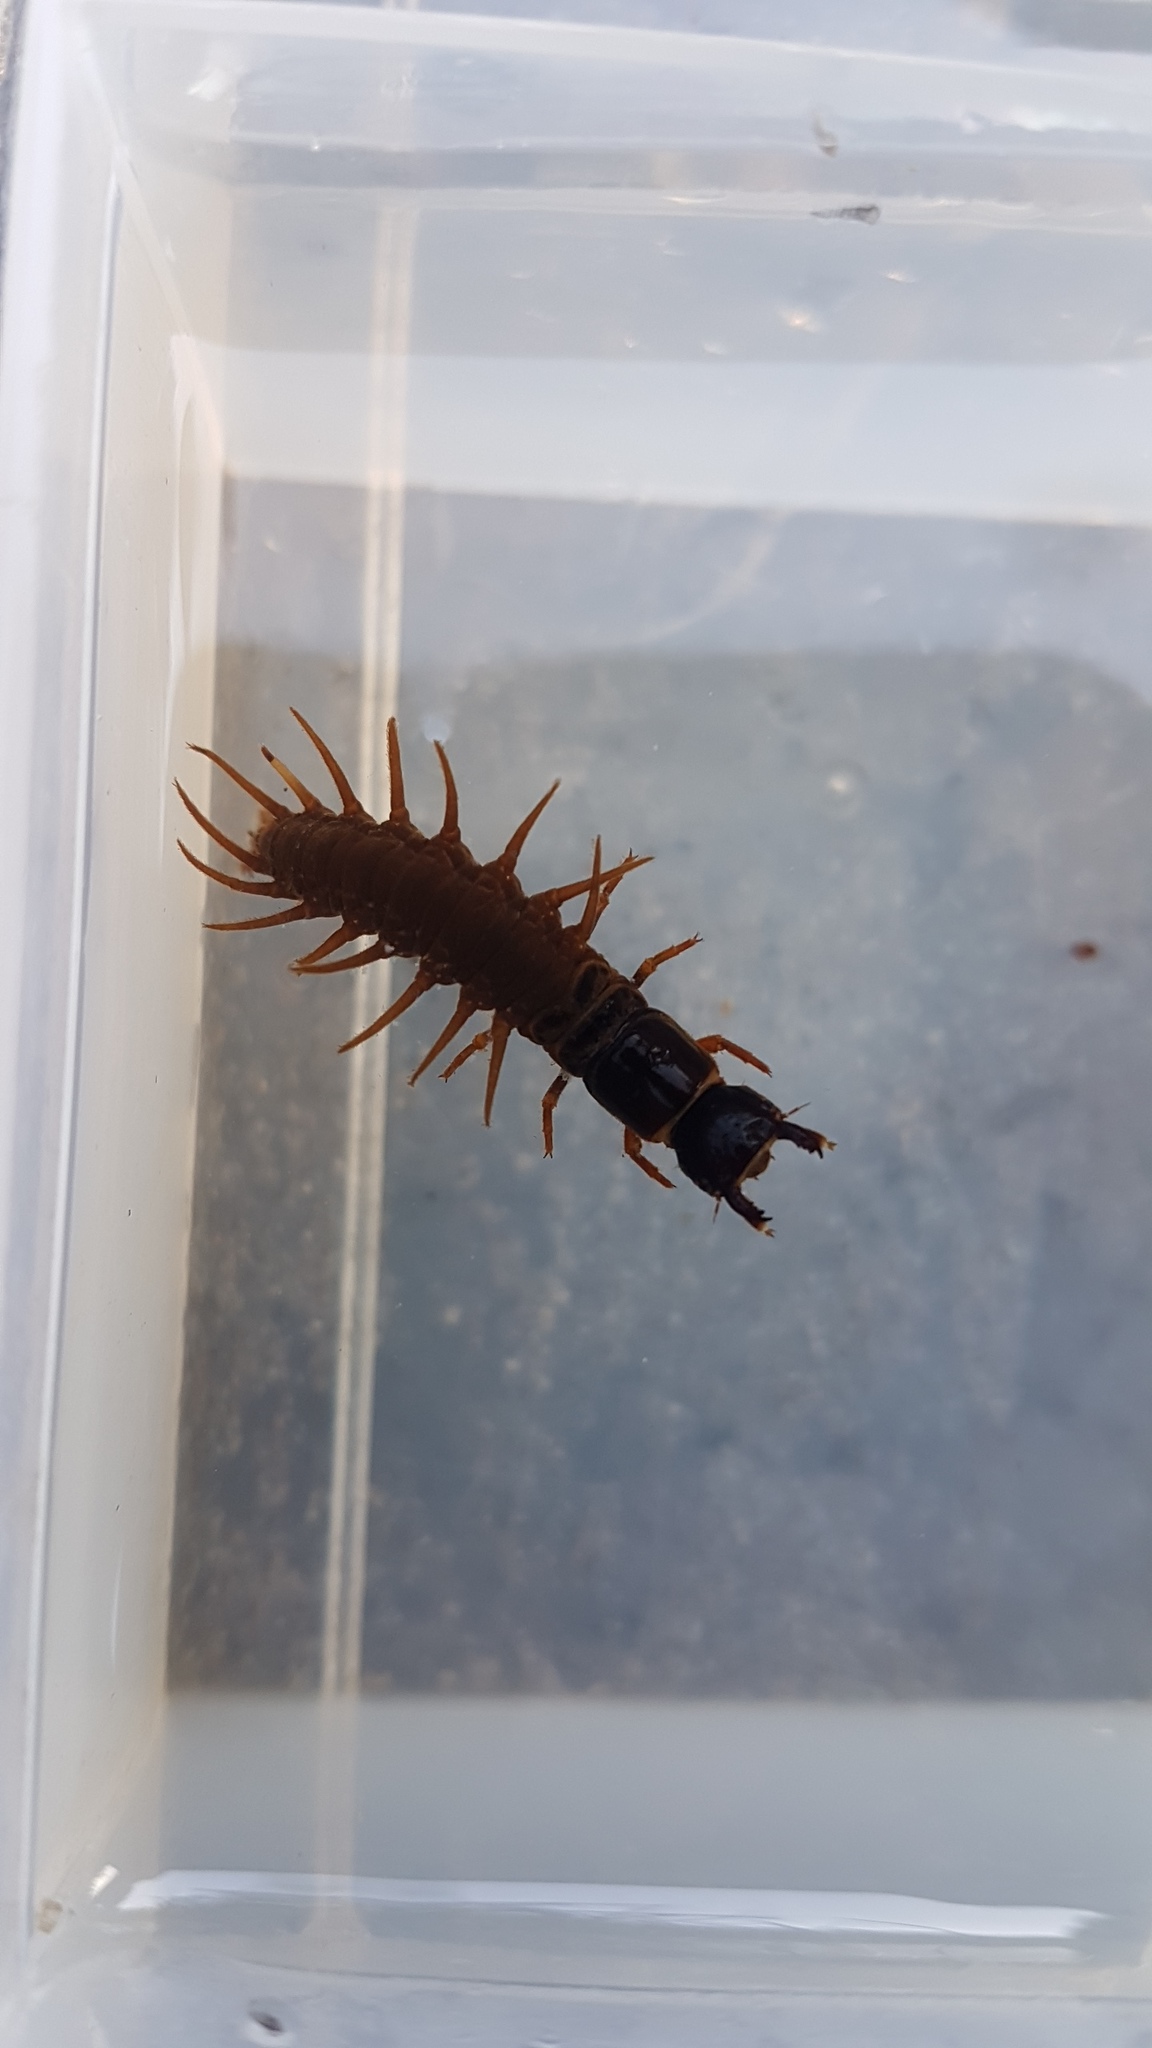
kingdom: Animalia
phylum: Arthropoda
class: Insecta
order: Megaloptera
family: Corydalidae
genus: Archichauliodes
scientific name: Archichauliodes diversus
